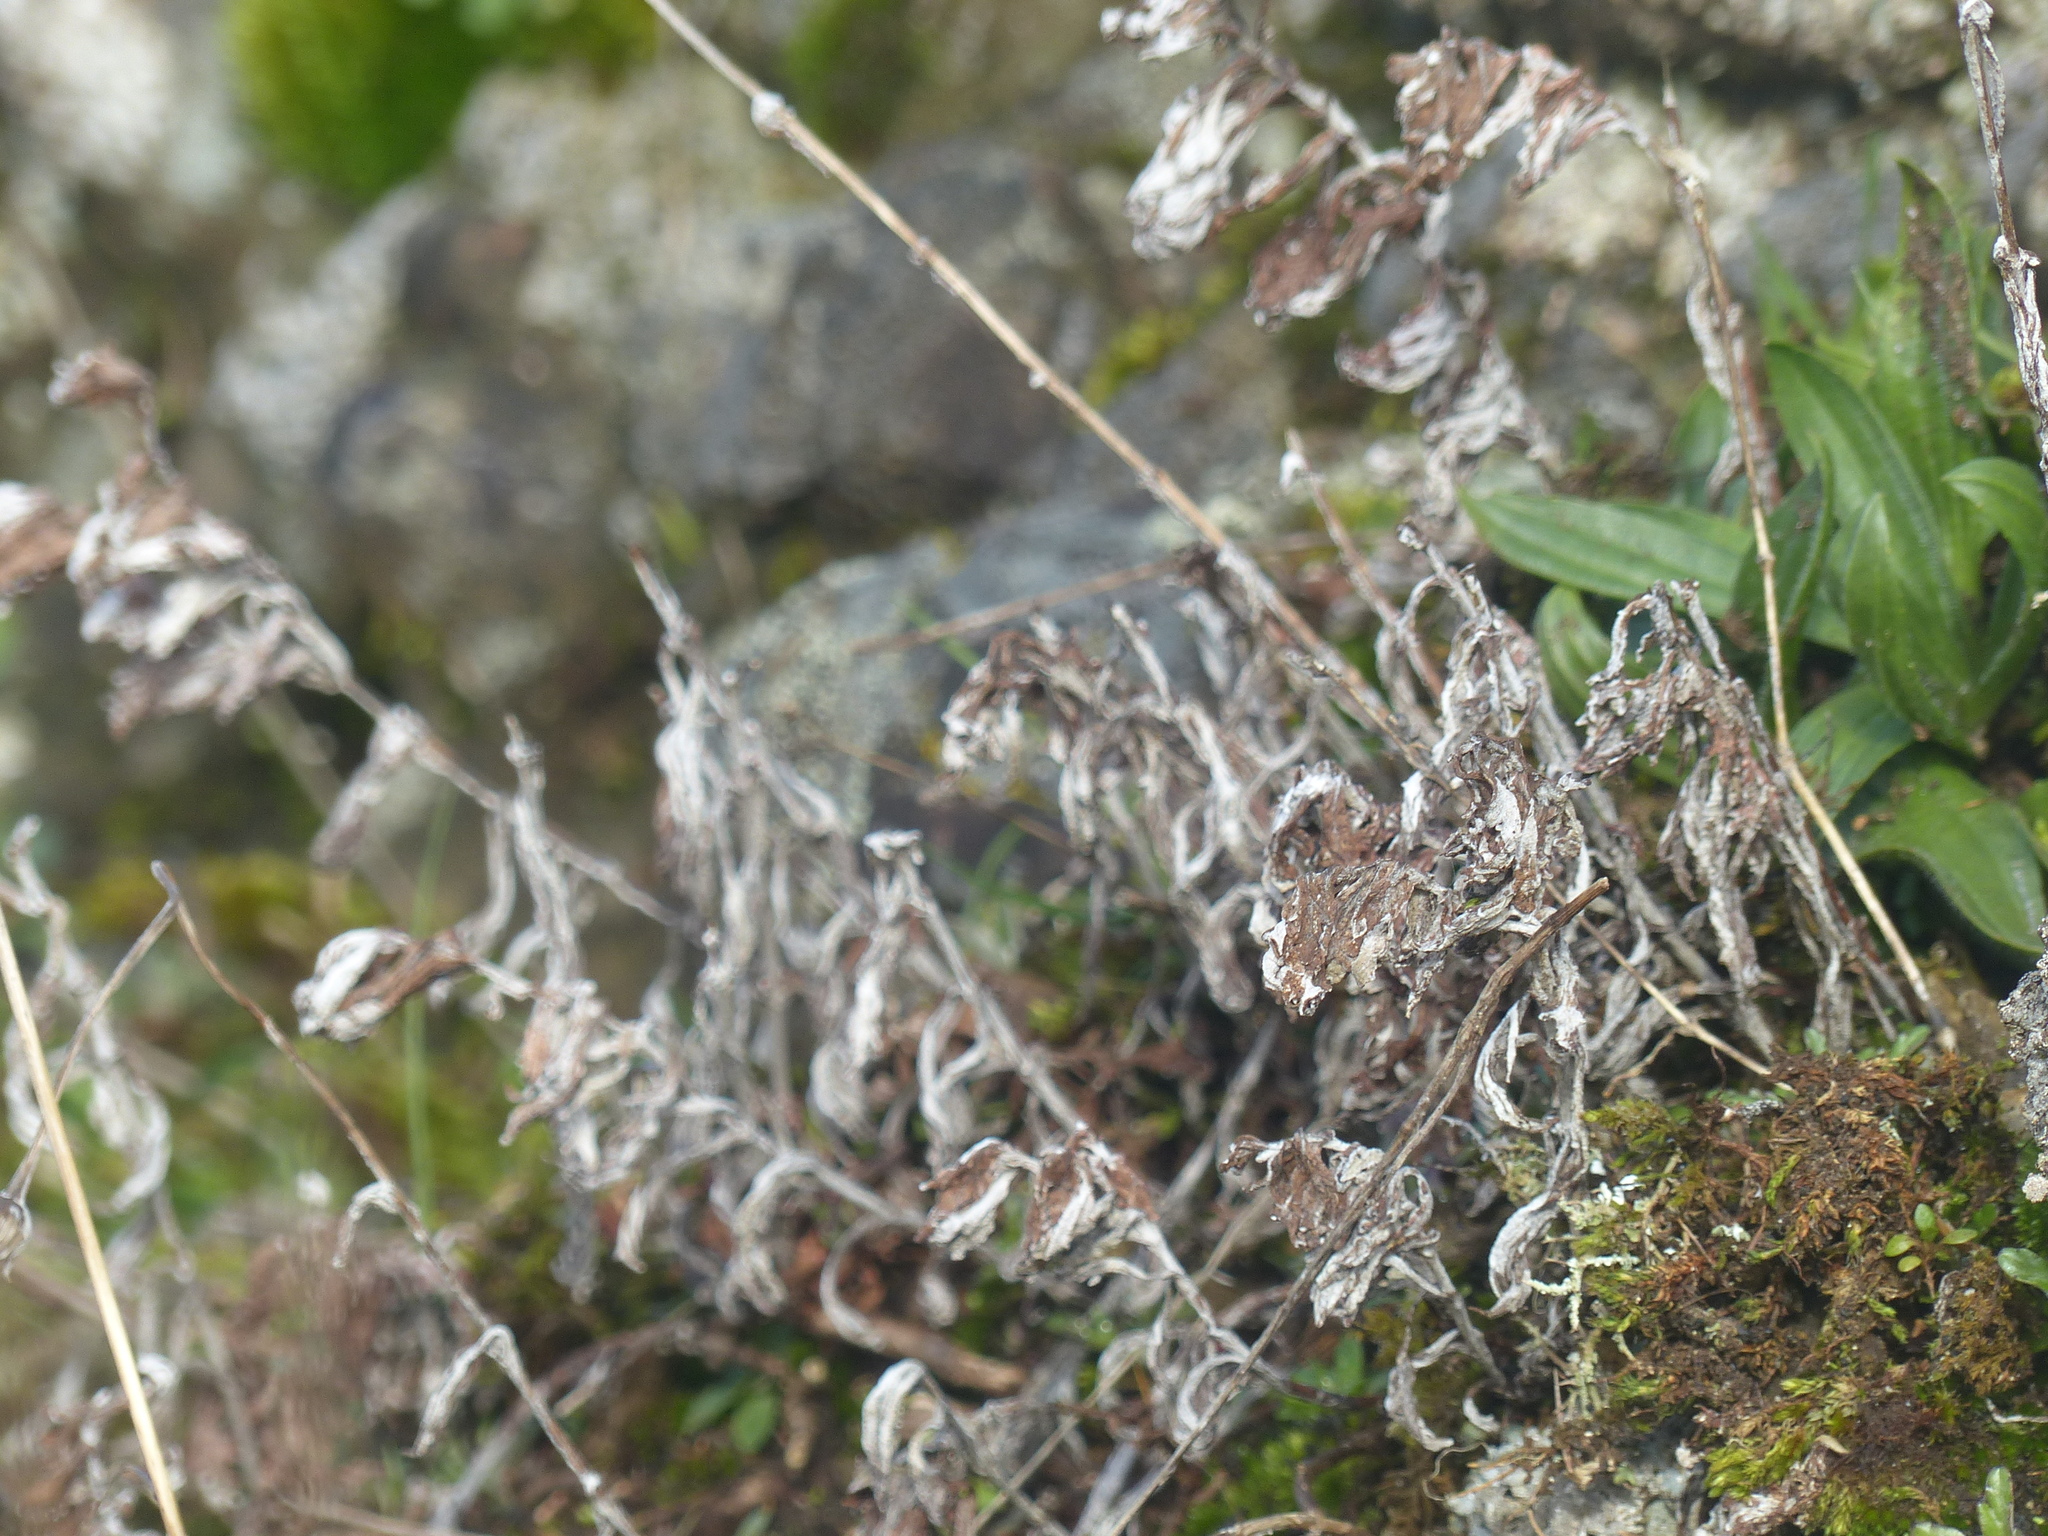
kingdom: Plantae
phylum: Tracheophyta
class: Magnoliopsida
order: Asterales
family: Asteraceae
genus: Eriophyllum
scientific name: Eriophyllum lanatum
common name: Common woolly-sunflower
